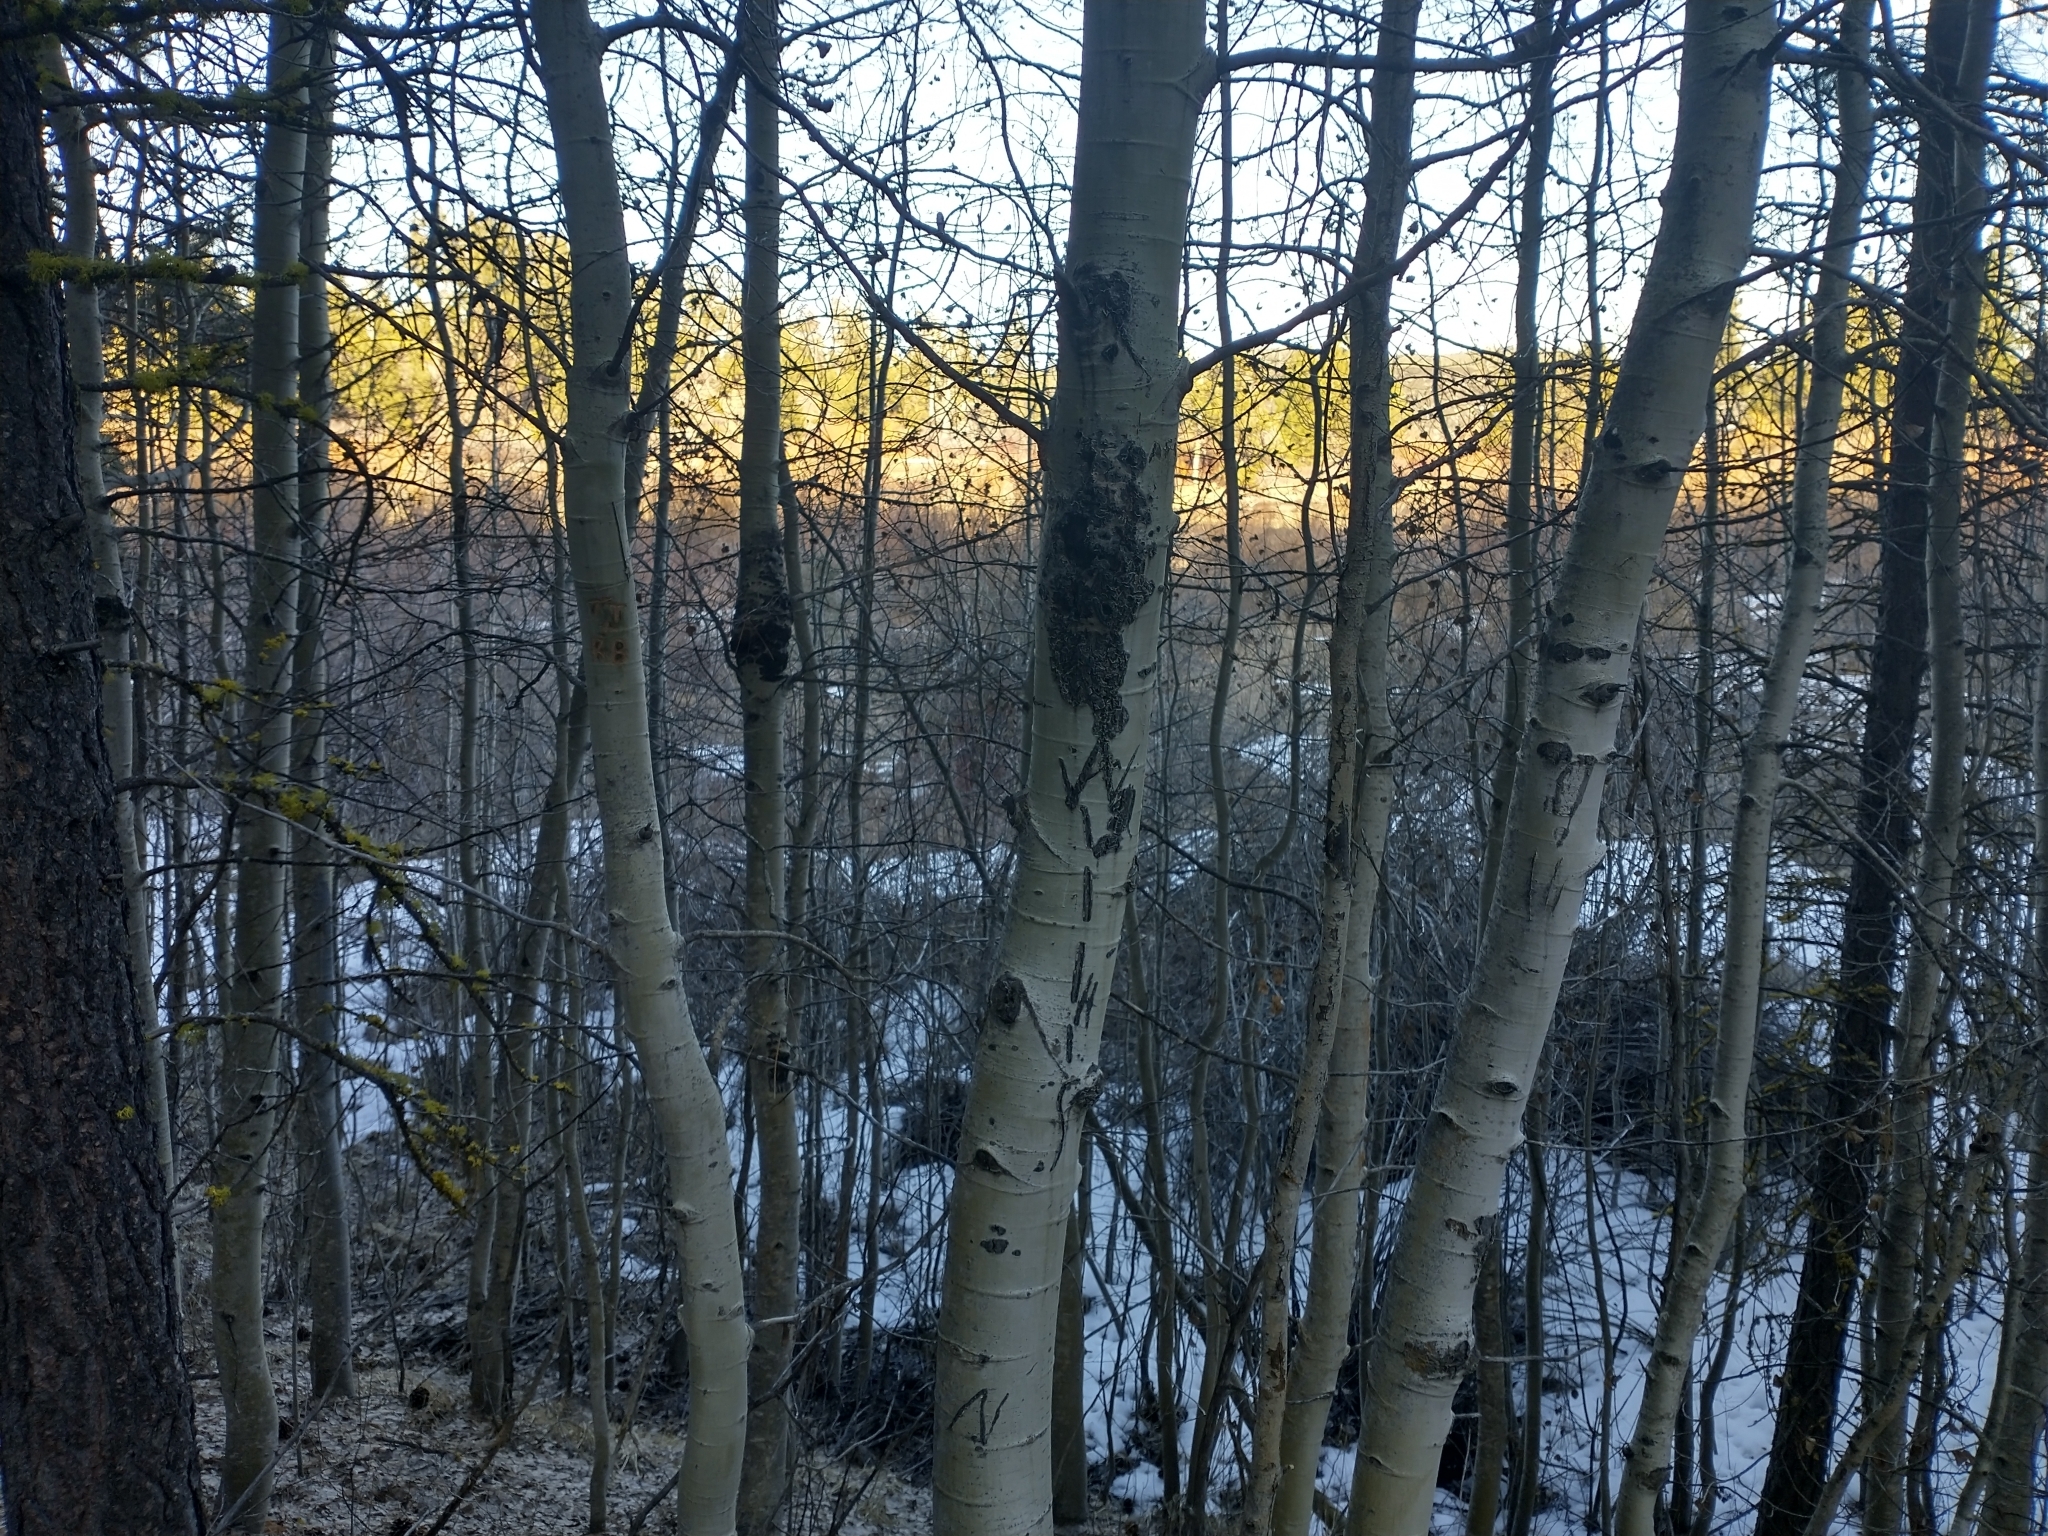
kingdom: Plantae
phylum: Tracheophyta
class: Magnoliopsida
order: Malpighiales
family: Salicaceae
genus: Populus
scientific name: Populus tremuloides
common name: Quaking aspen
